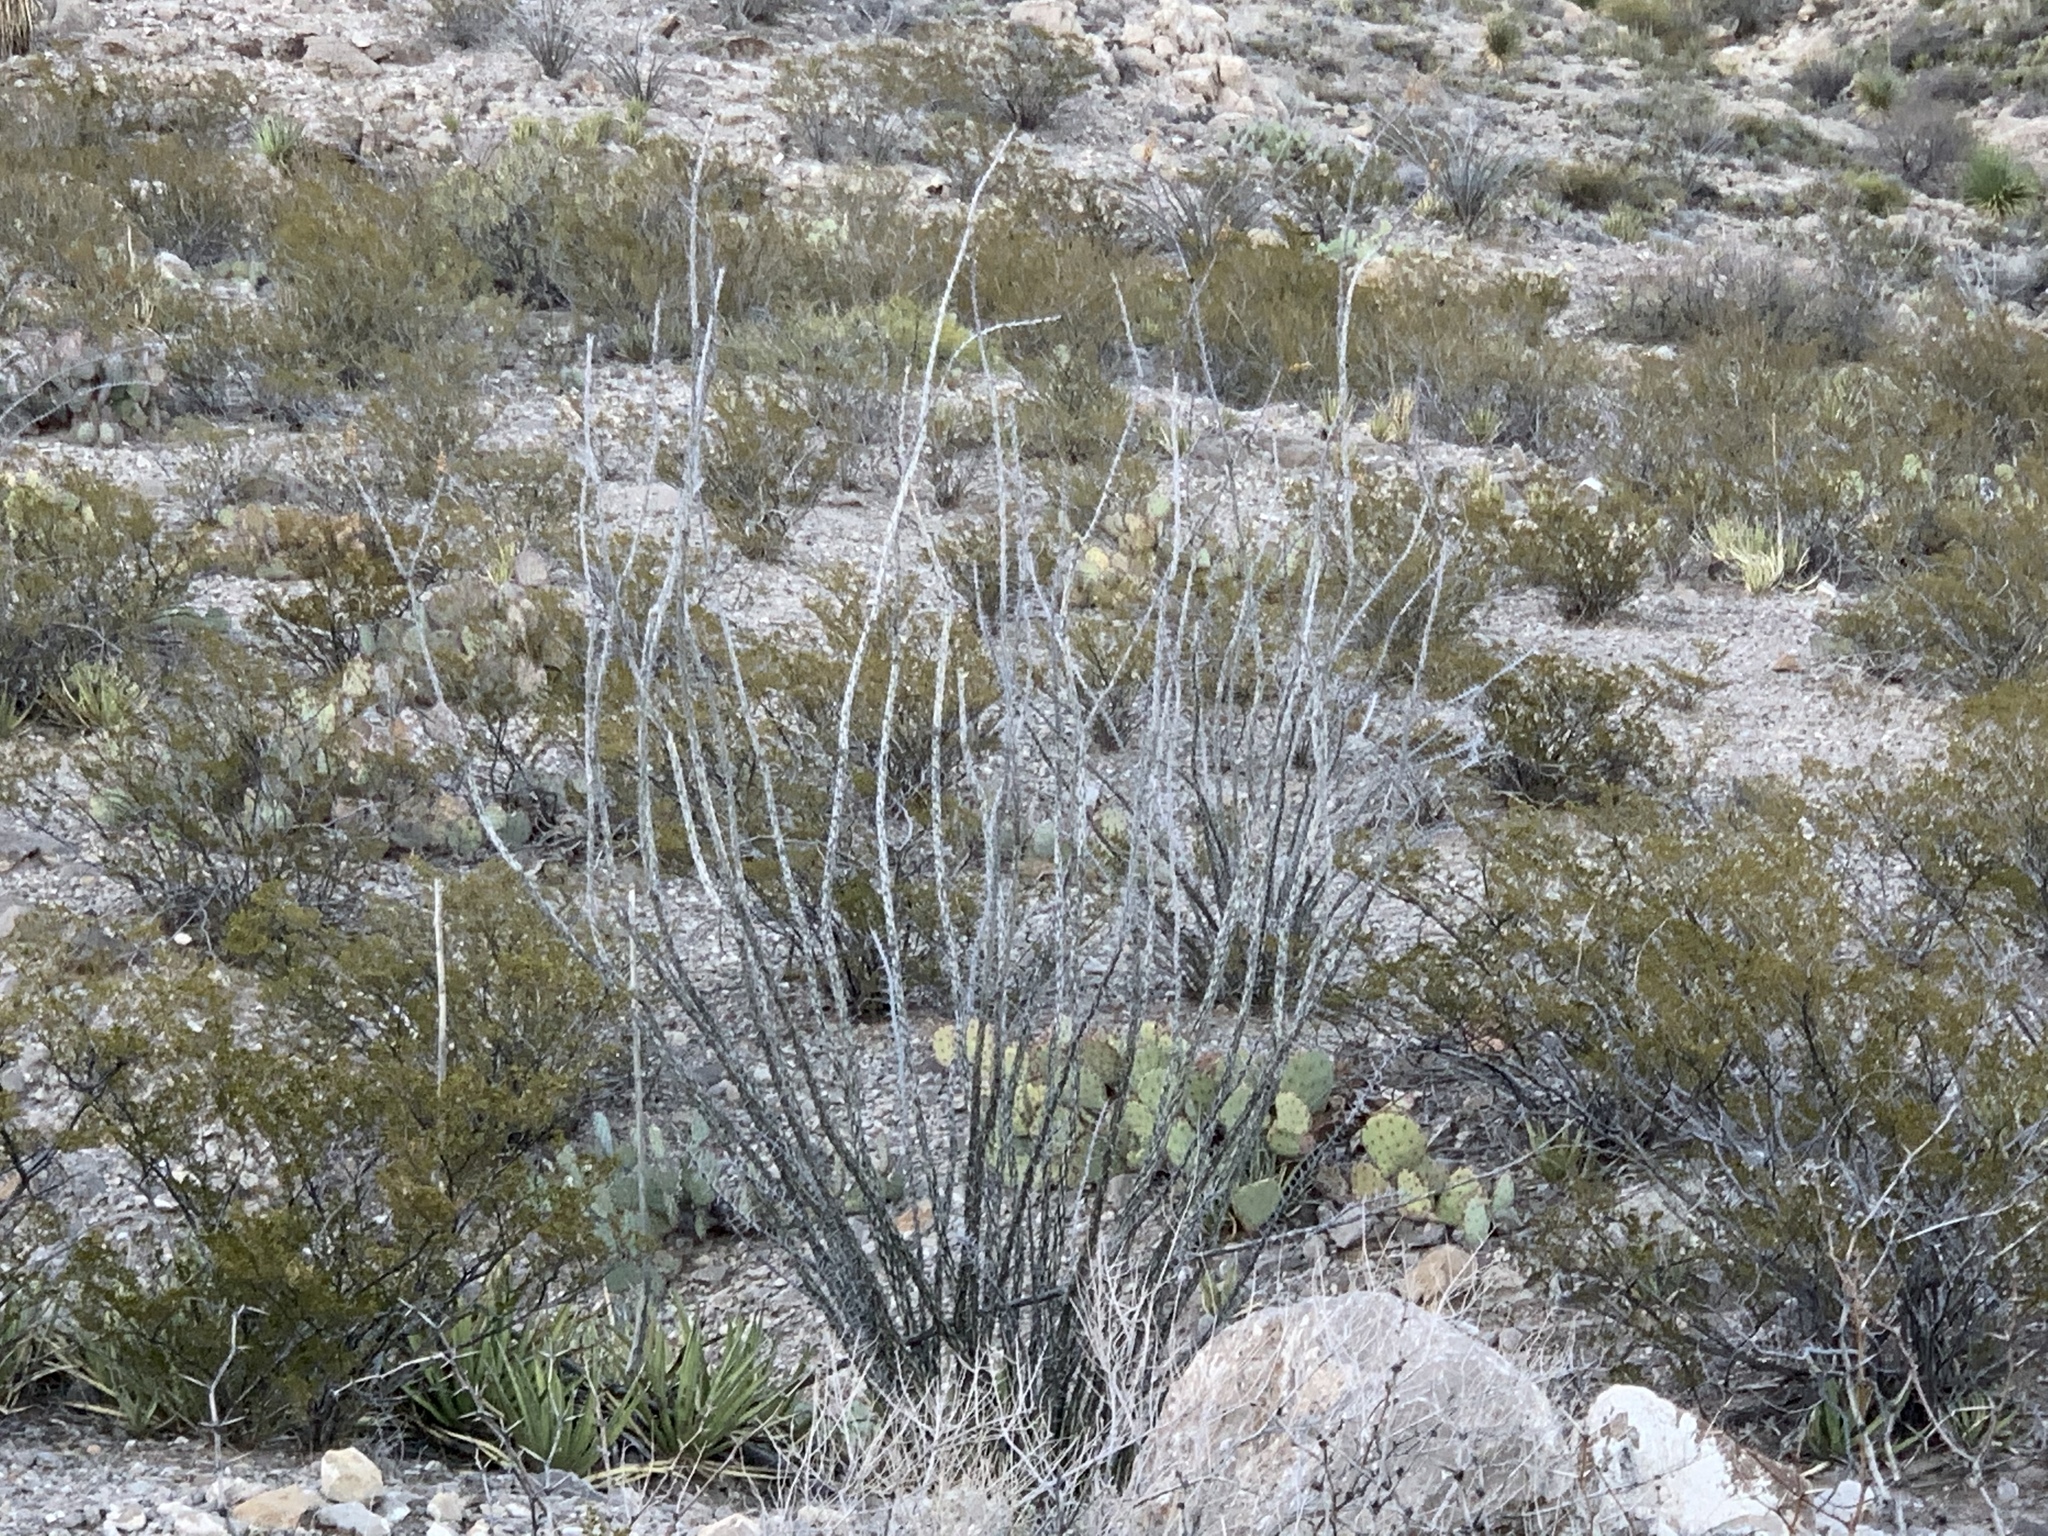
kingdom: Plantae
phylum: Tracheophyta
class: Magnoliopsida
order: Ericales
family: Fouquieriaceae
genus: Fouquieria
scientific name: Fouquieria splendens
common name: Vine-cactus
